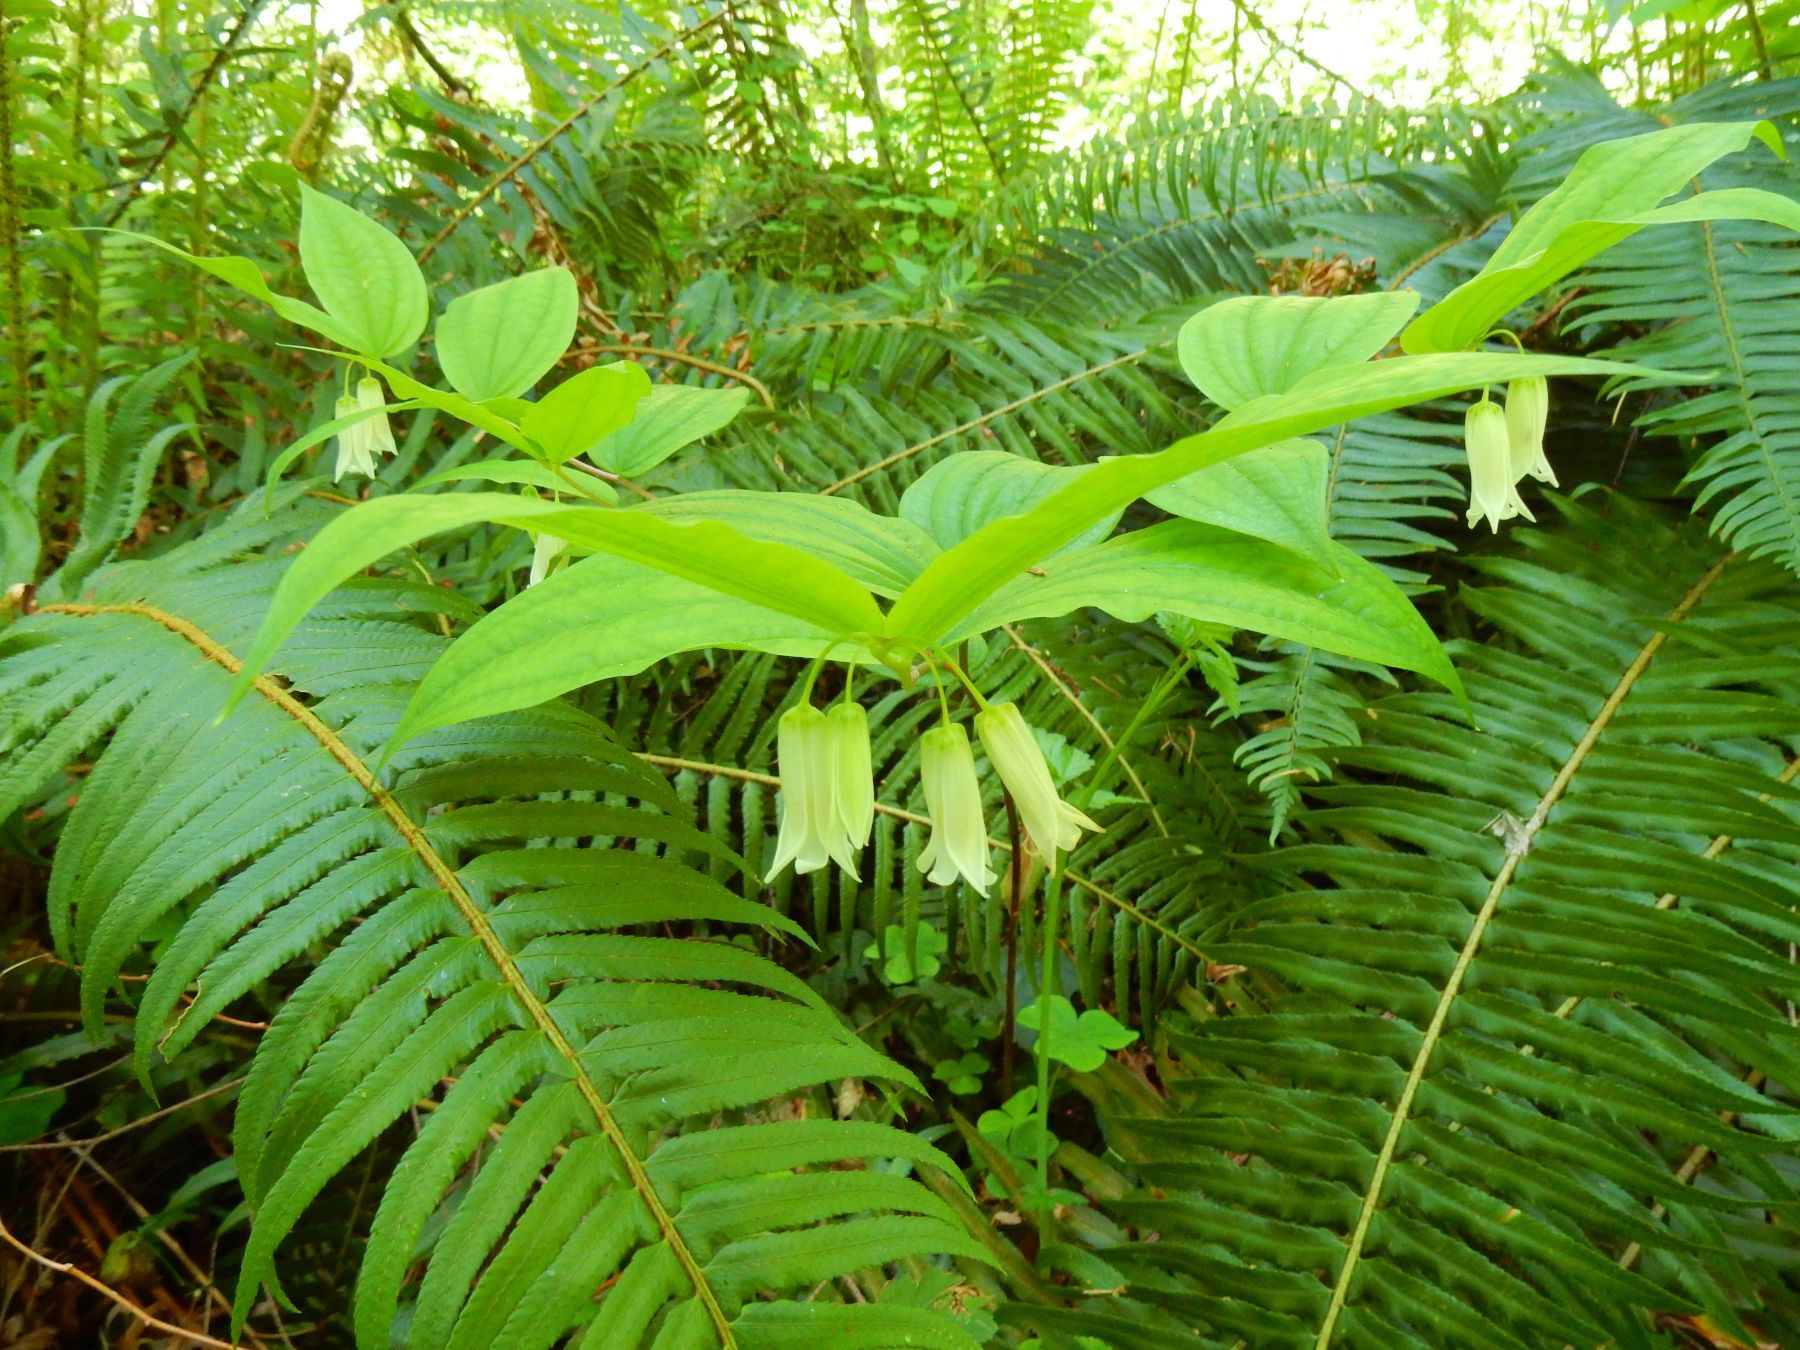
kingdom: Plantae
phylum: Tracheophyta
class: Liliopsida
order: Liliales
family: Liliaceae
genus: Prosartes
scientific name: Prosartes smithii
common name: Fairy-lantern
